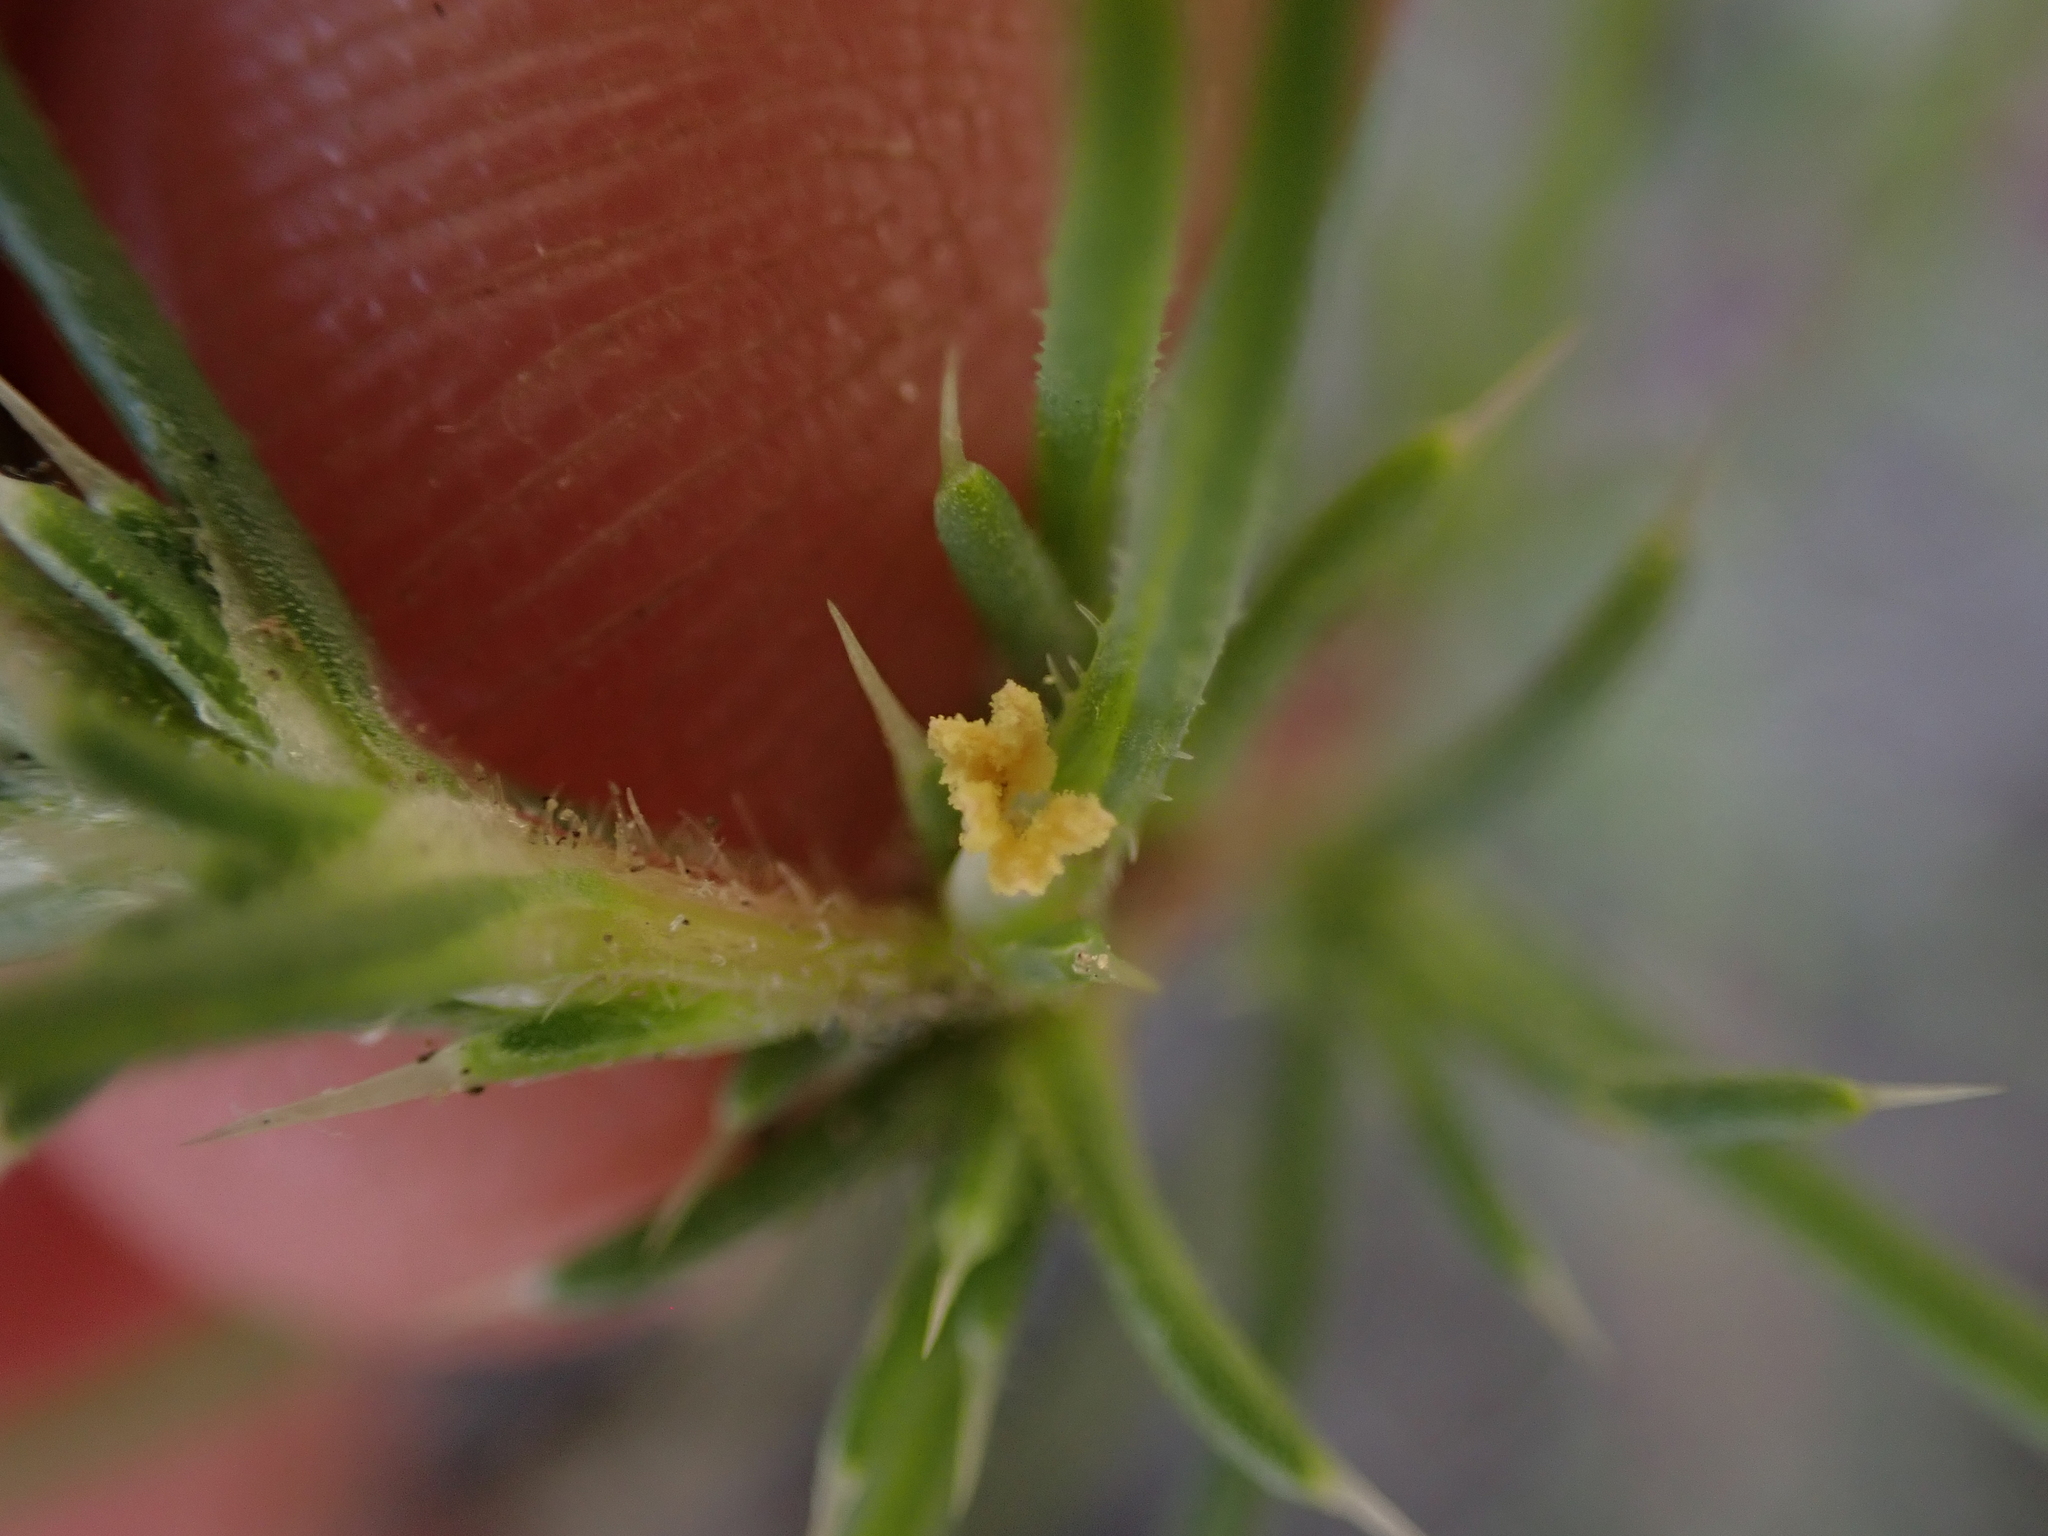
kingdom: Plantae
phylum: Tracheophyta
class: Magnoliopsida
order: Caryophyllales
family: Amaranthaceae
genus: Salsola
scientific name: Salsola tragus
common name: Prickly russian thistle
